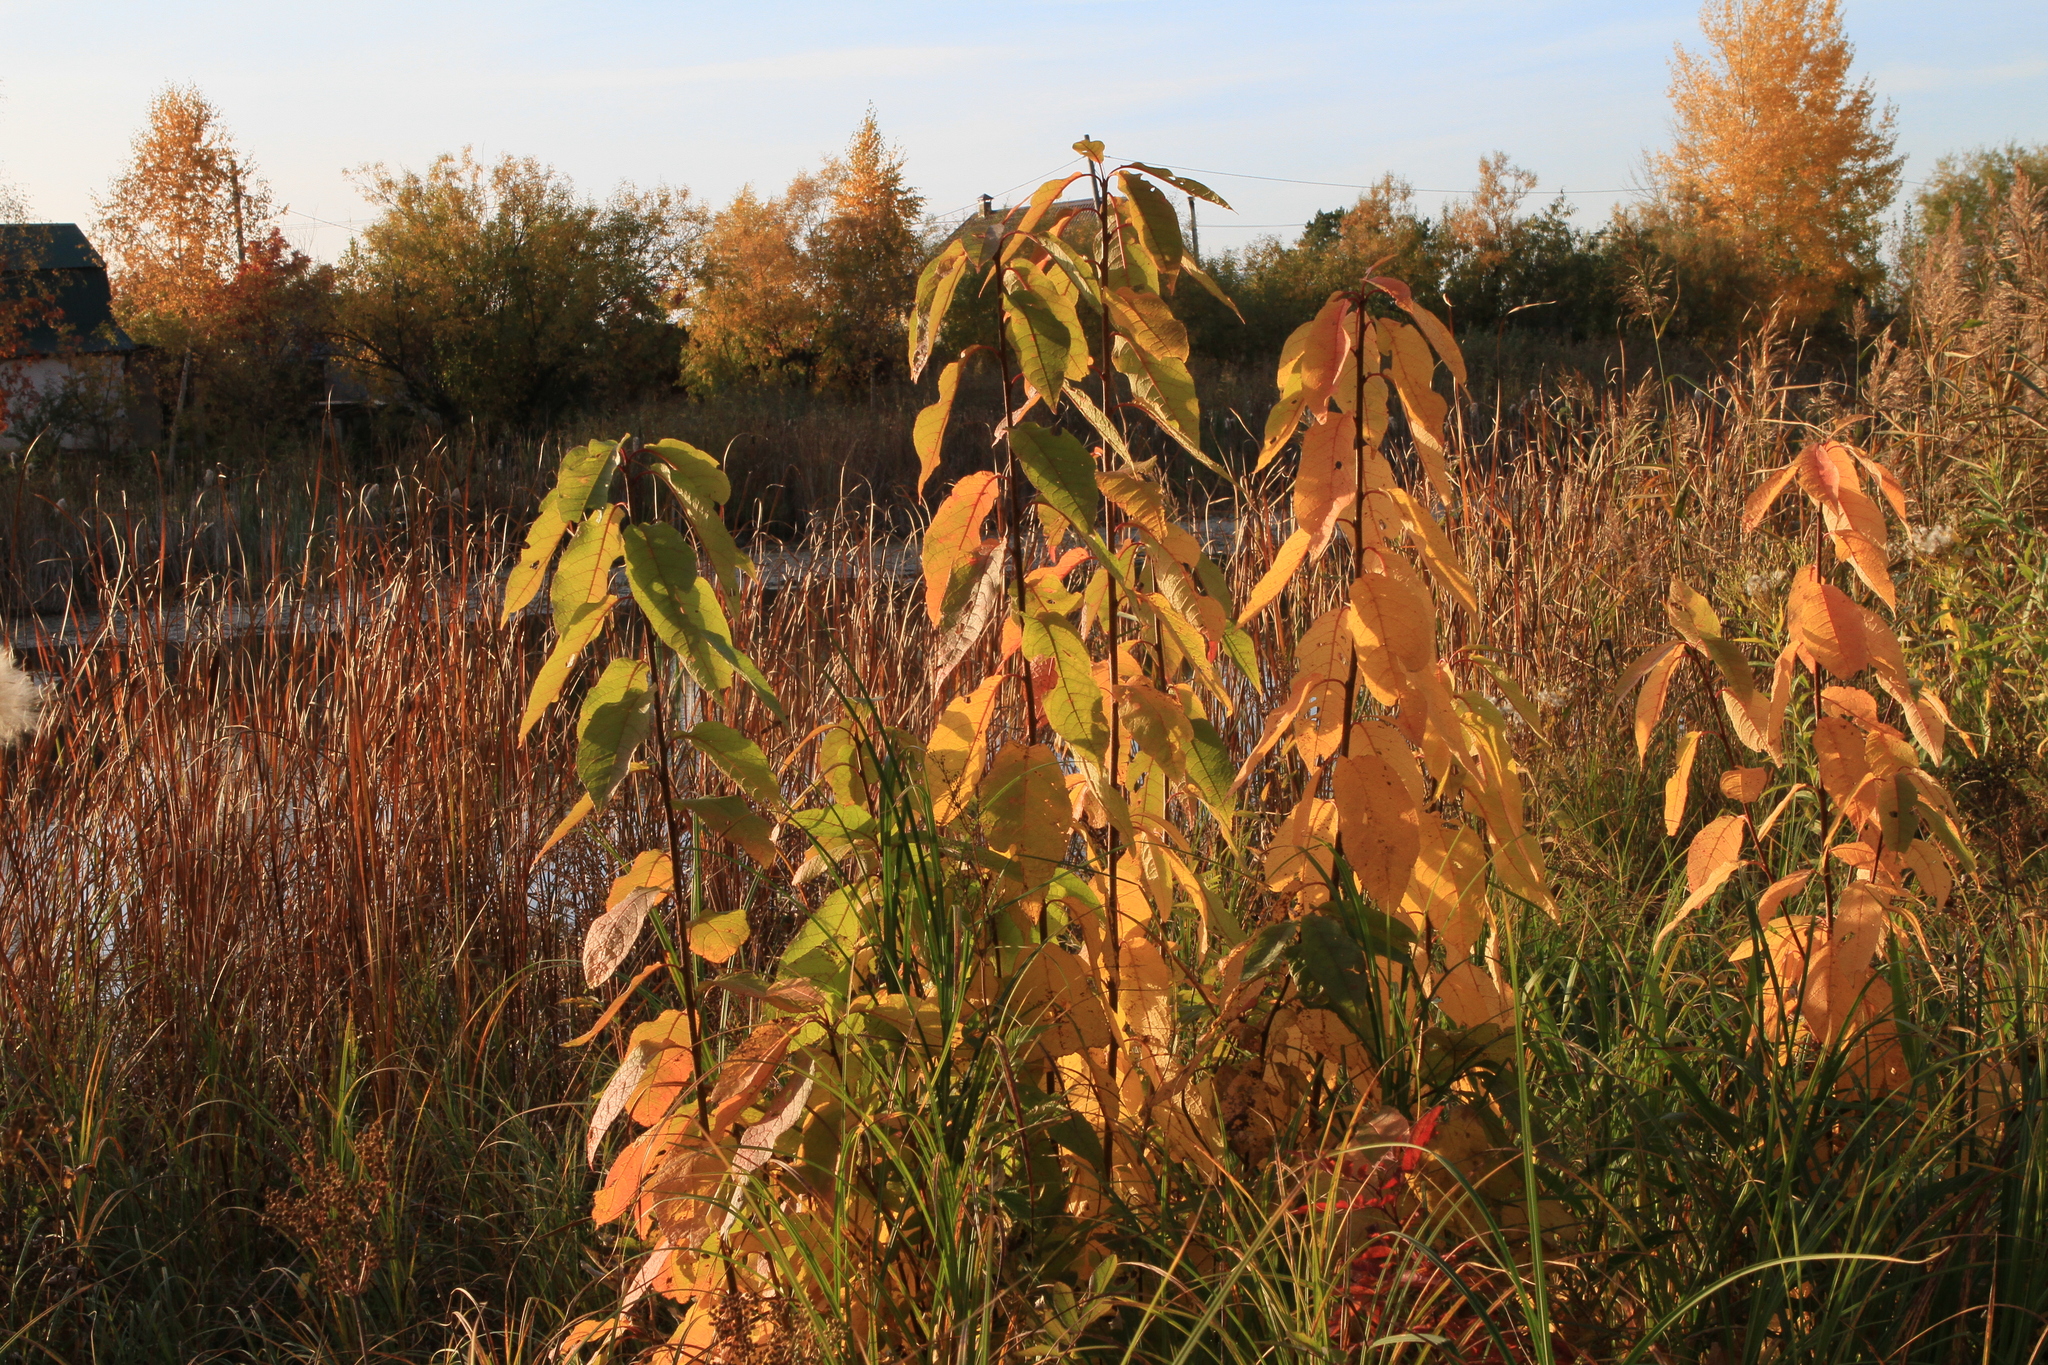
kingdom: Plantae
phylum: Tracheophyta
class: Magnoliopsida
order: Rosales
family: Rosaceae
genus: Prunus
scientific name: Prunus padus
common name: Bird cherry
